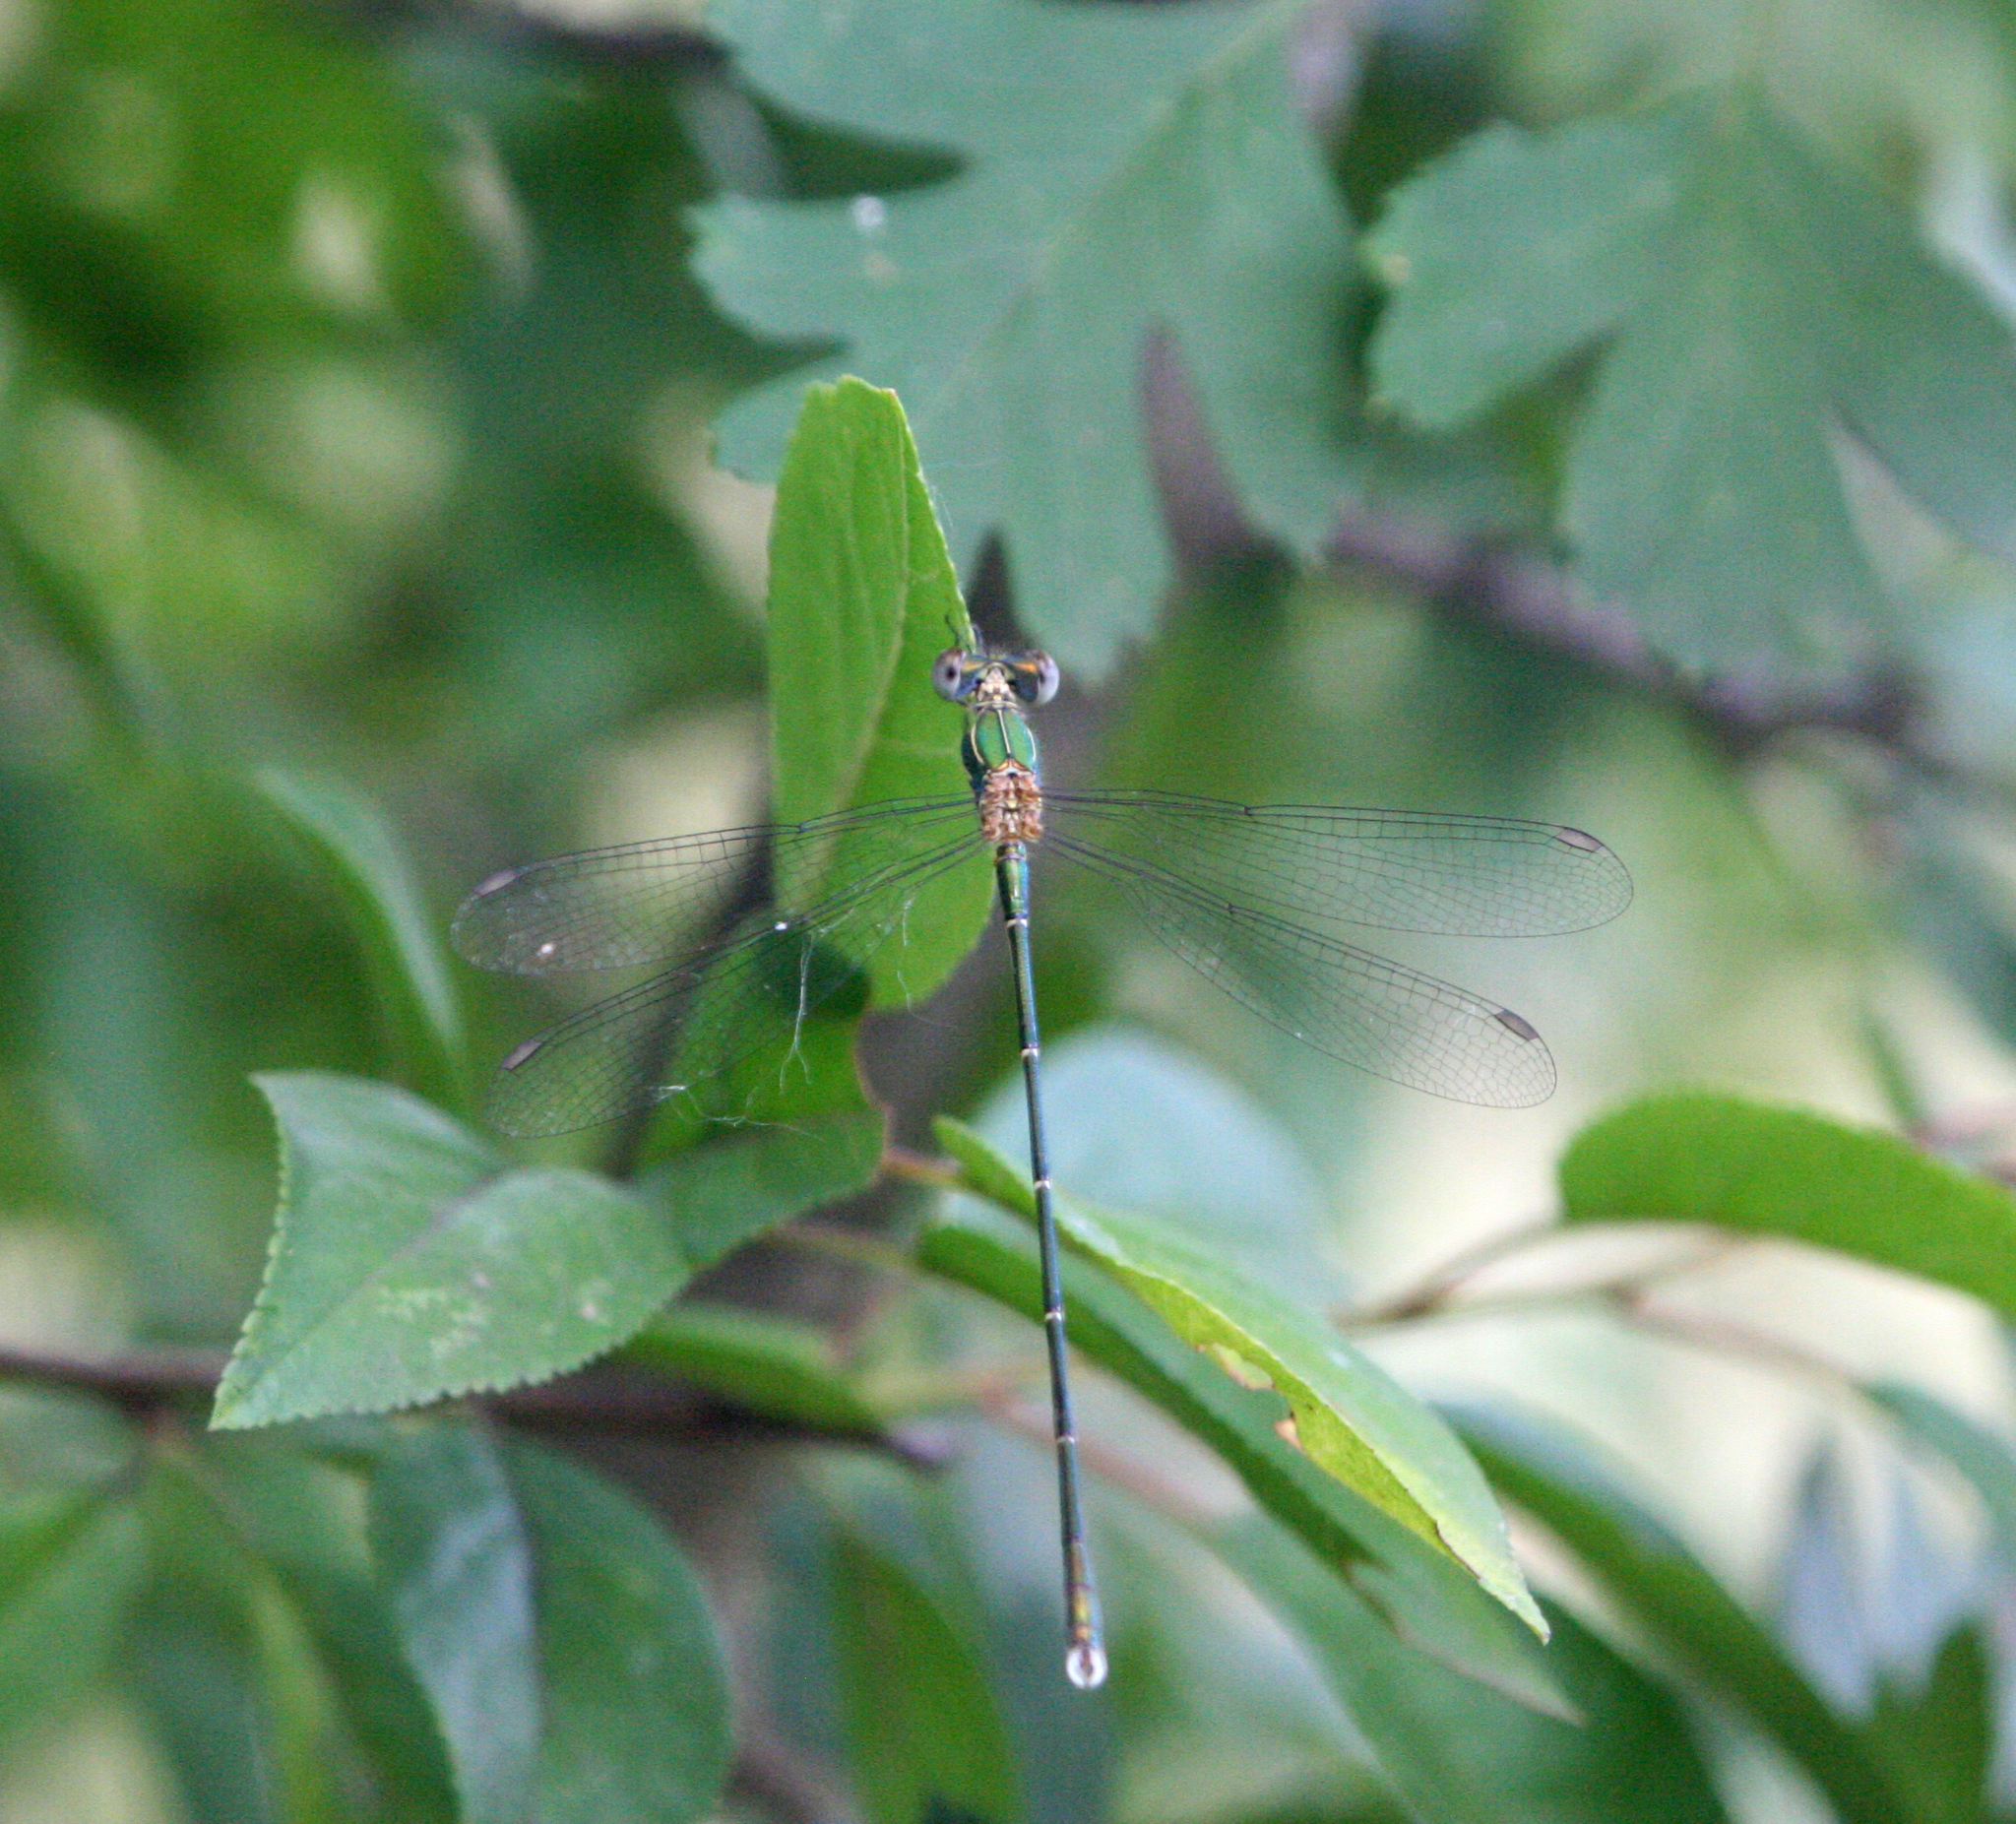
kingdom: Animalia
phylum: Arthropoda
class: Insecta
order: Odonata
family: Lestidae
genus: Chalcolestes
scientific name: Chalcolestes parvidens
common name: Eastern willow spreadwing
